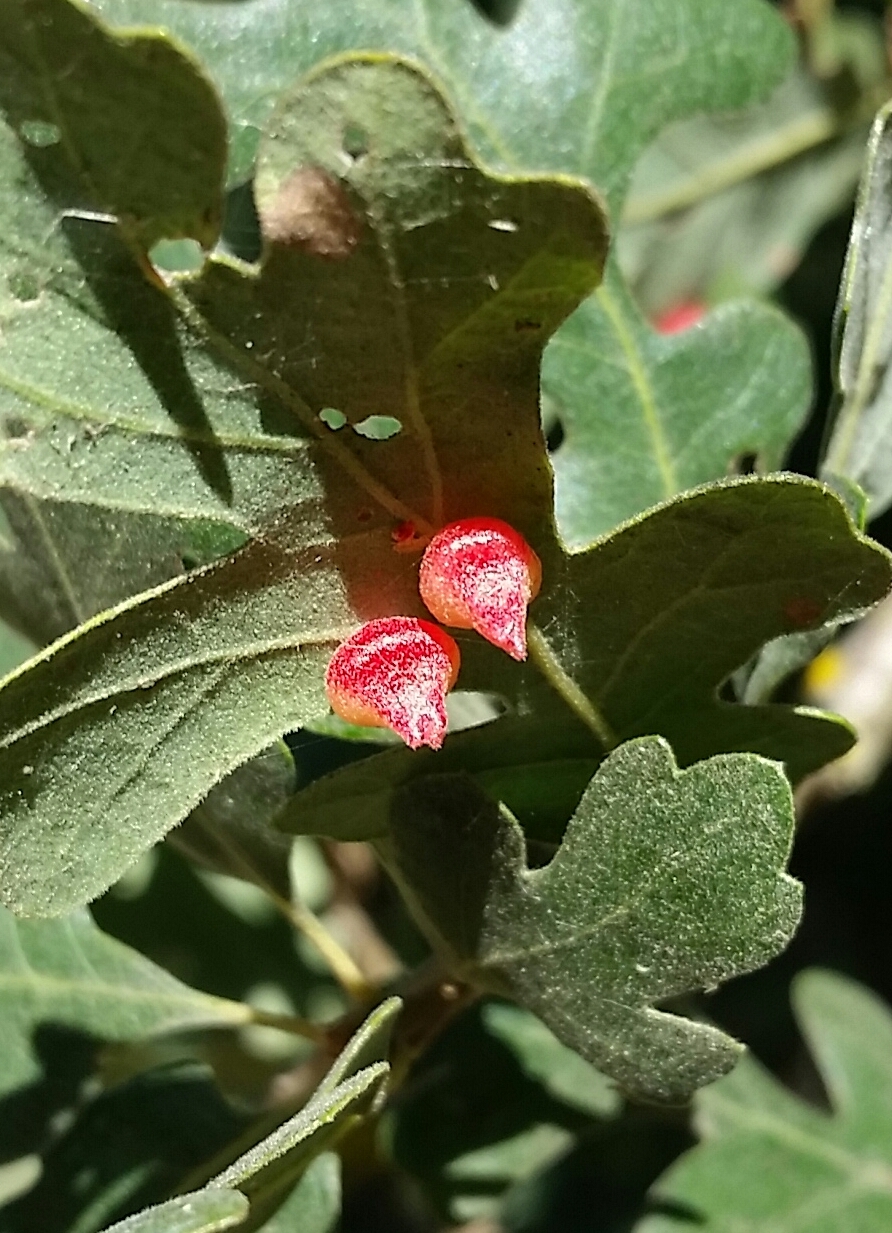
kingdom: Animalia
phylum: Arthropoda
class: Insecta
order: Hymenoptera
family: Cynipidae
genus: Andricus
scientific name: Andricus
